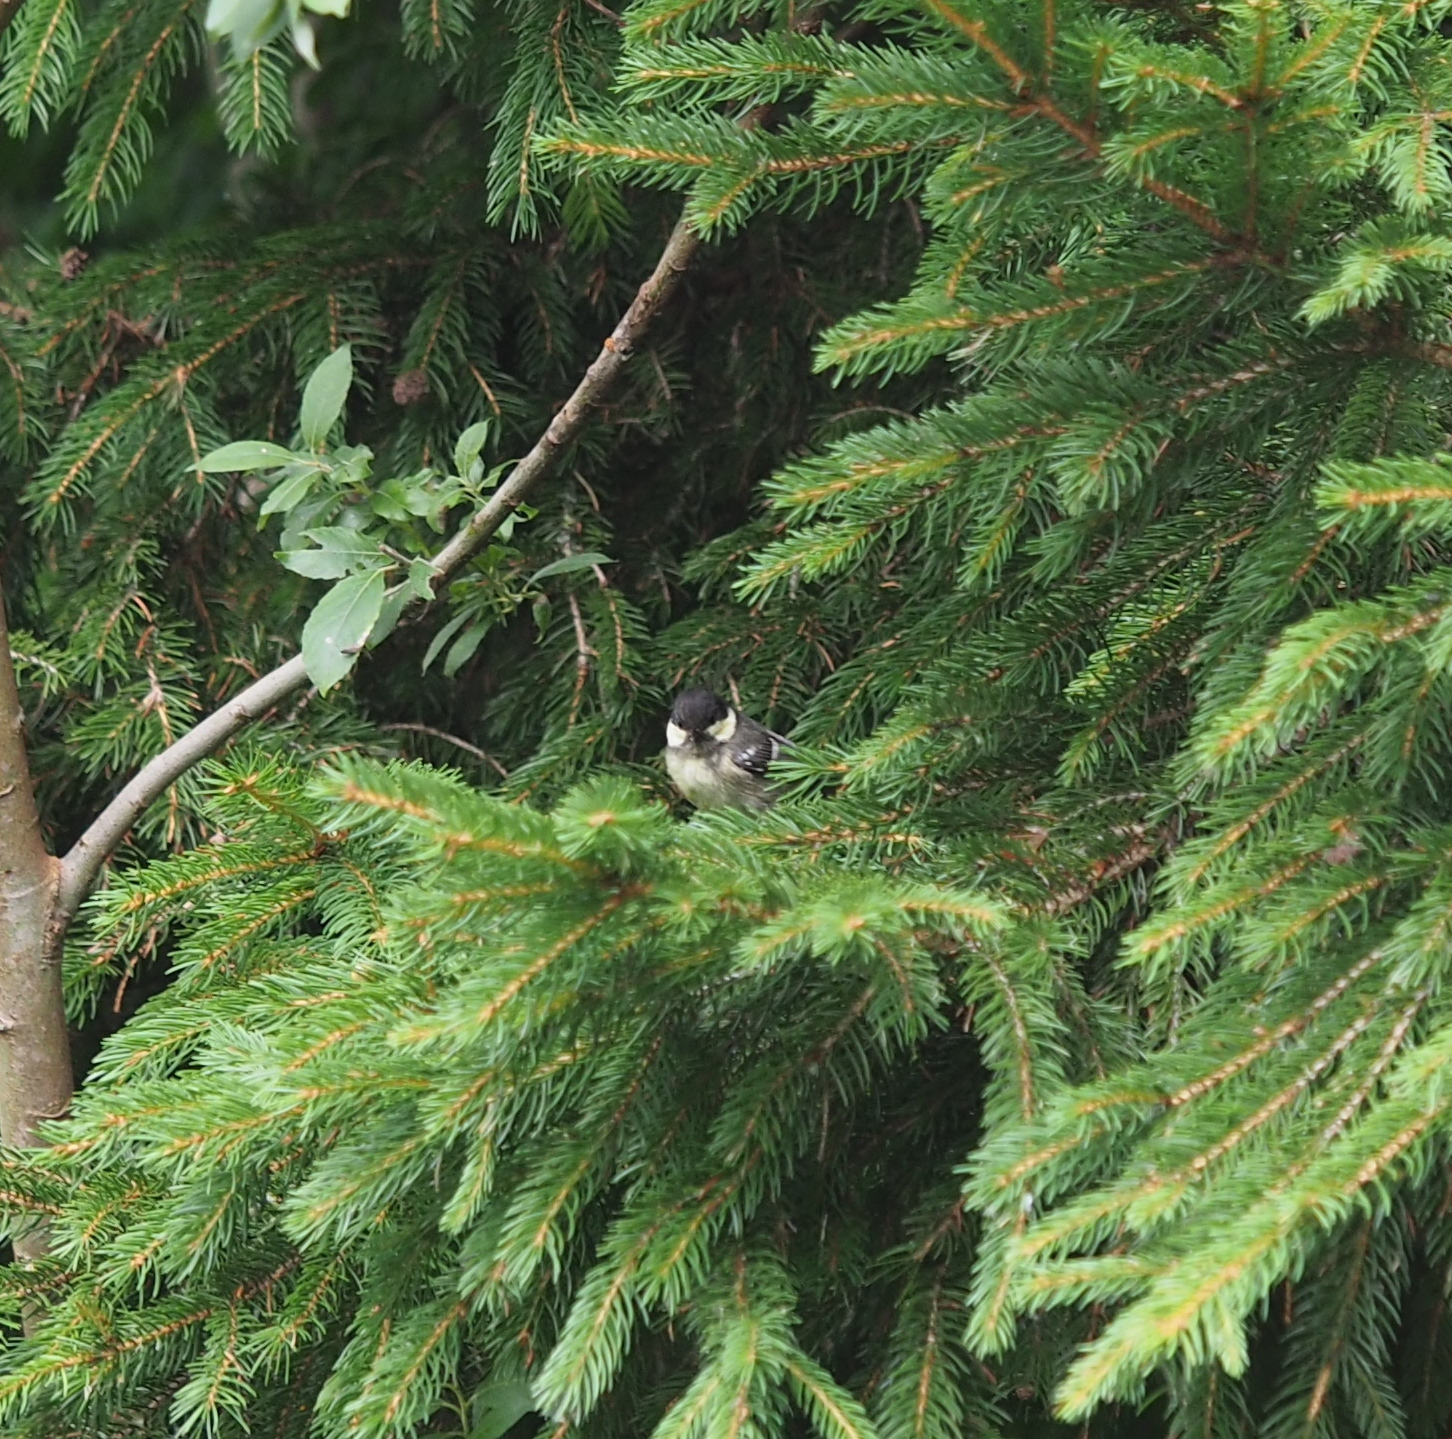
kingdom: Animalia
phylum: Chordata
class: Aves
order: Passeriformes
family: Paridae
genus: Periparus
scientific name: Periparus ater
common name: Coal tit
